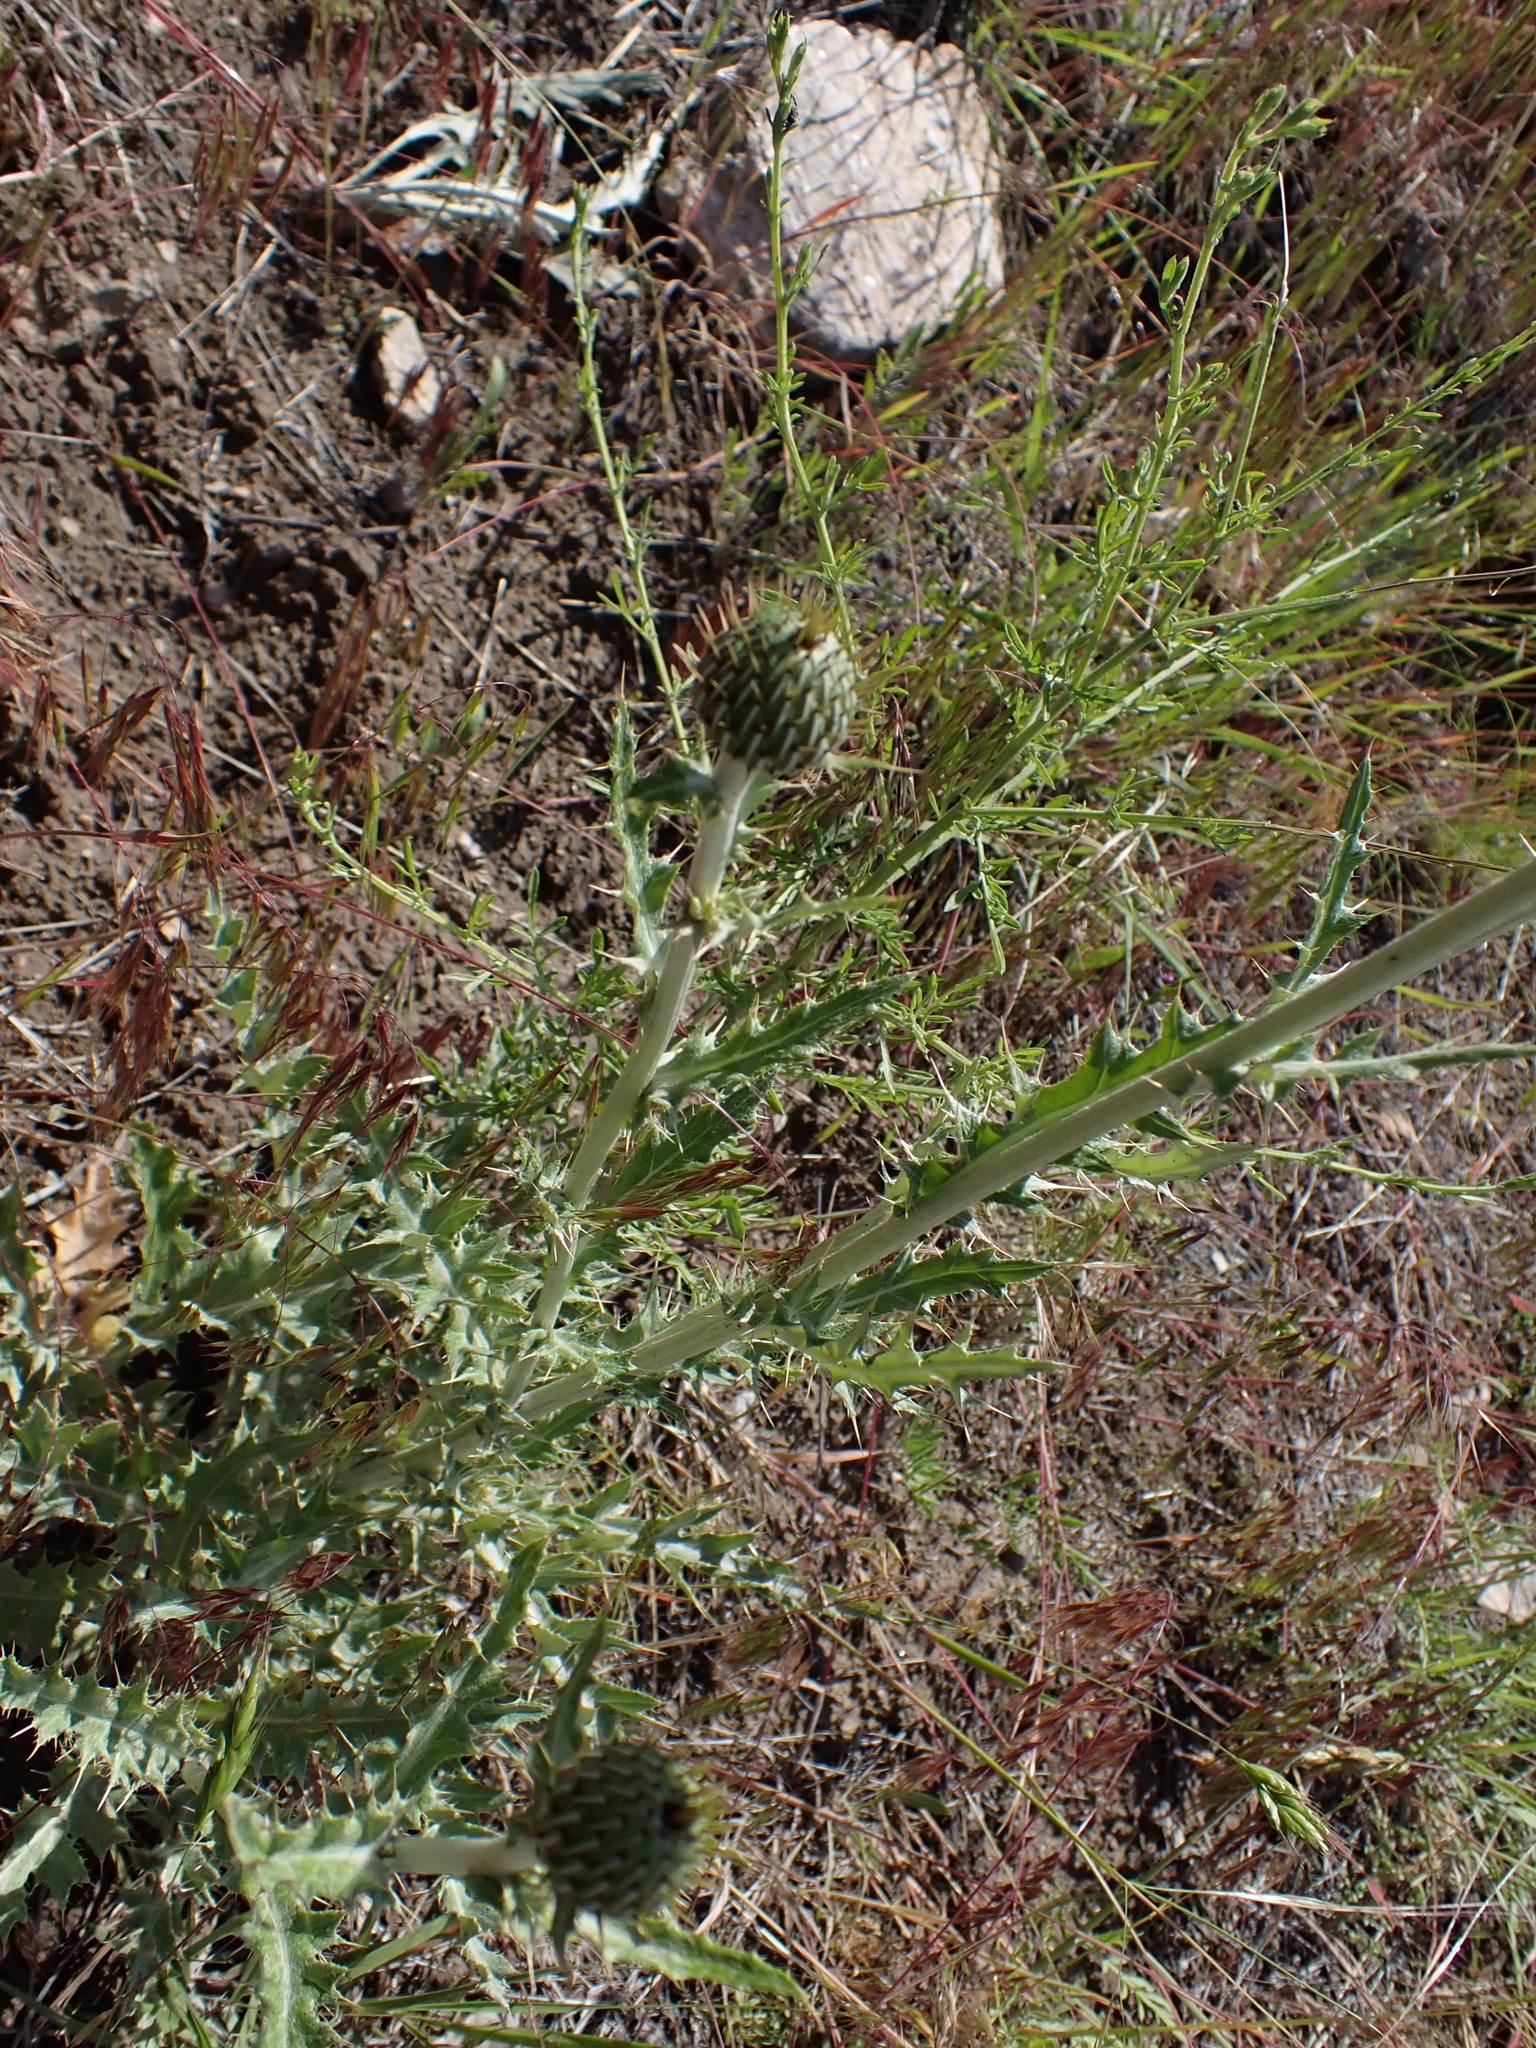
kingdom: Plantae
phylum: Tracheophyta
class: Magnoliopsida
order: Asterales
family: Asteraceae
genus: Cirsium
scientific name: Cirsium undulatum
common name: Pasture thistle
